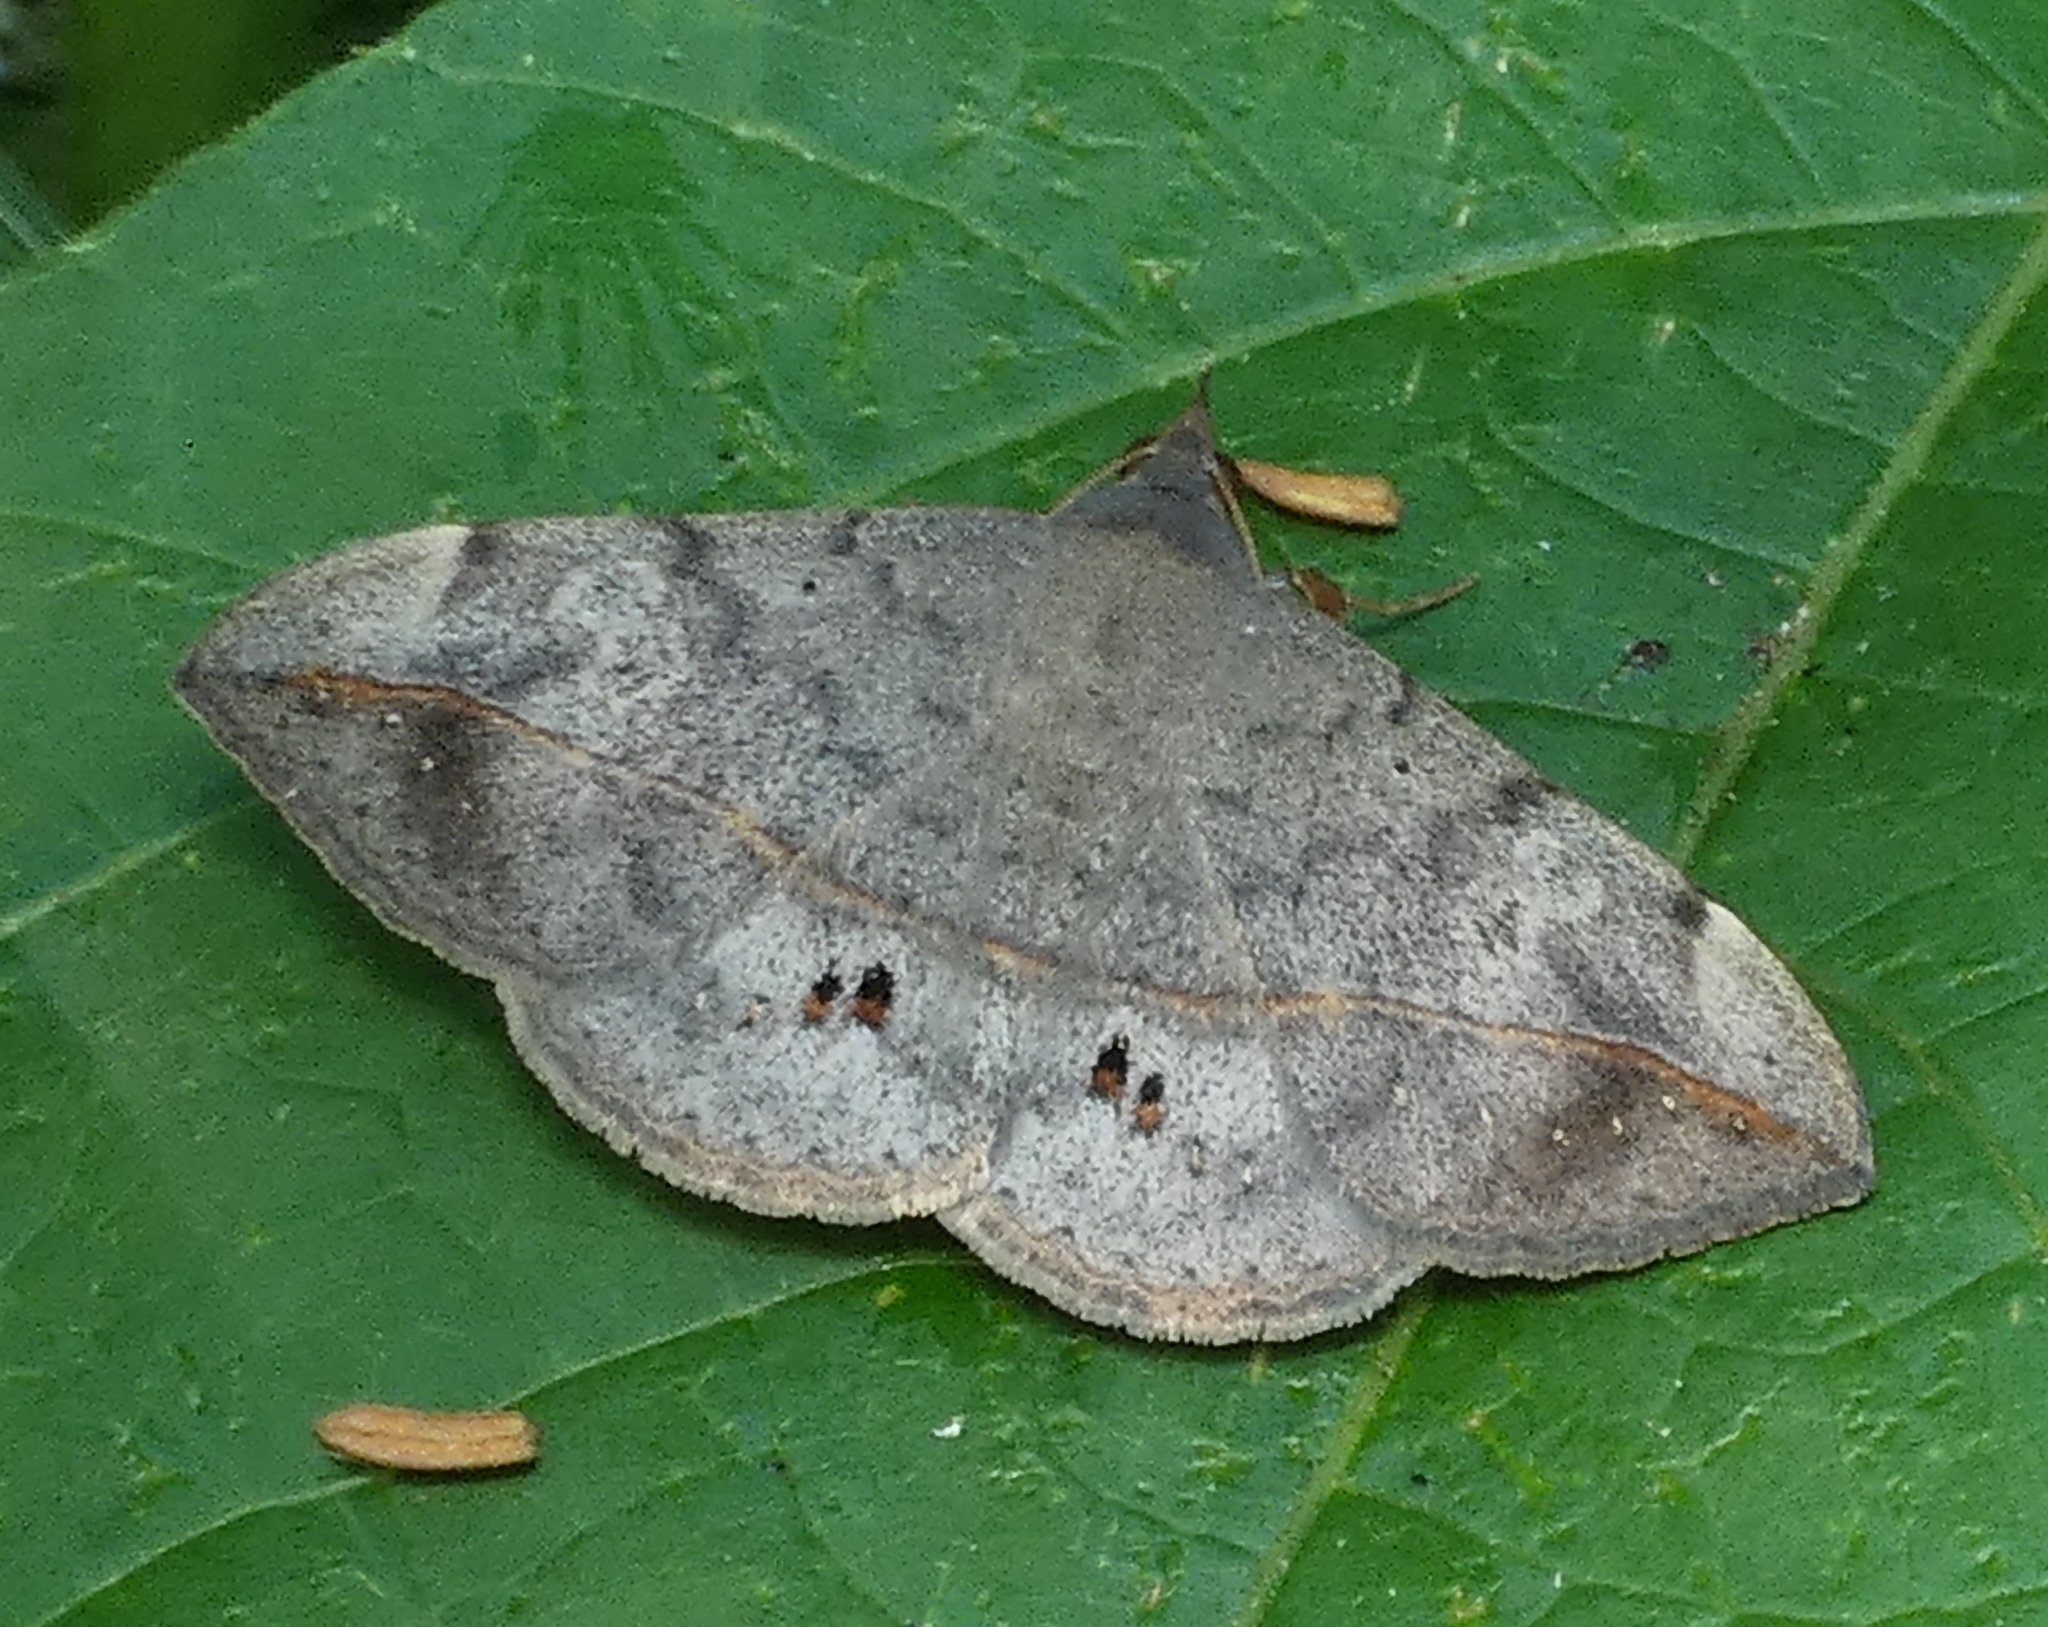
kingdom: Animalia
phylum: Arthropoda
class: Insecta
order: Lepidoptera
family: Erebidae
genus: Anticarsia
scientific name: Anticarsia gemmatalis
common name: Cutworm moth
